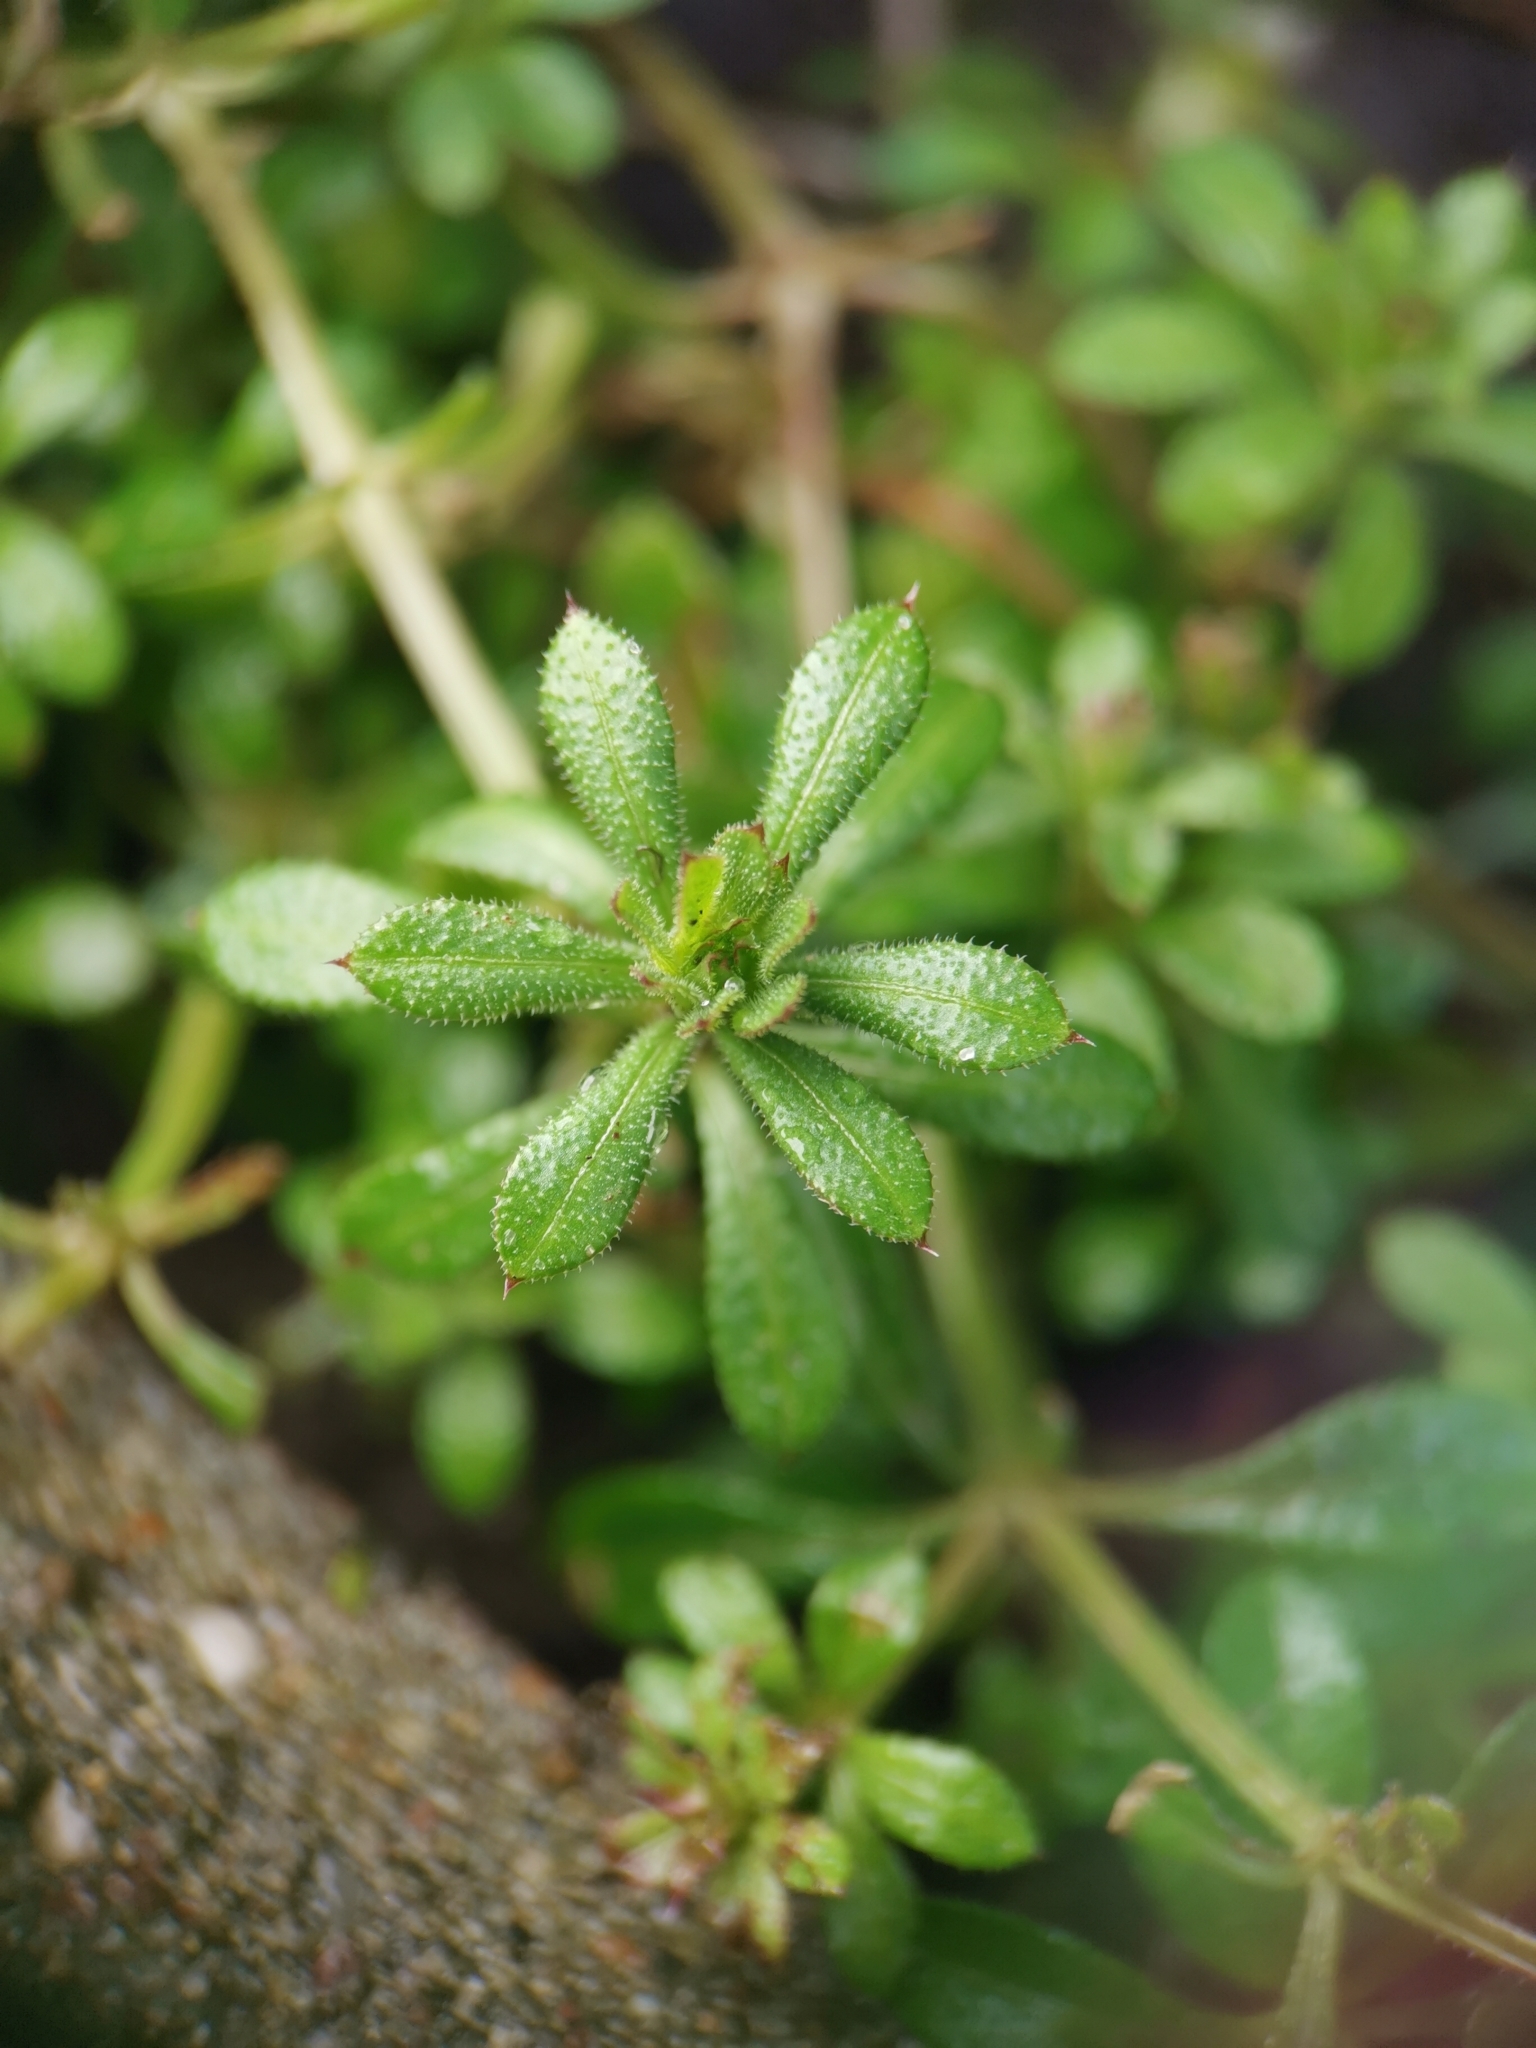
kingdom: Plantae
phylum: Tracheophyta
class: Magnoliopsida
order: Gentianales
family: Rubiaceae
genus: Galium
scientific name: Galium aparine
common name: Cleavers
